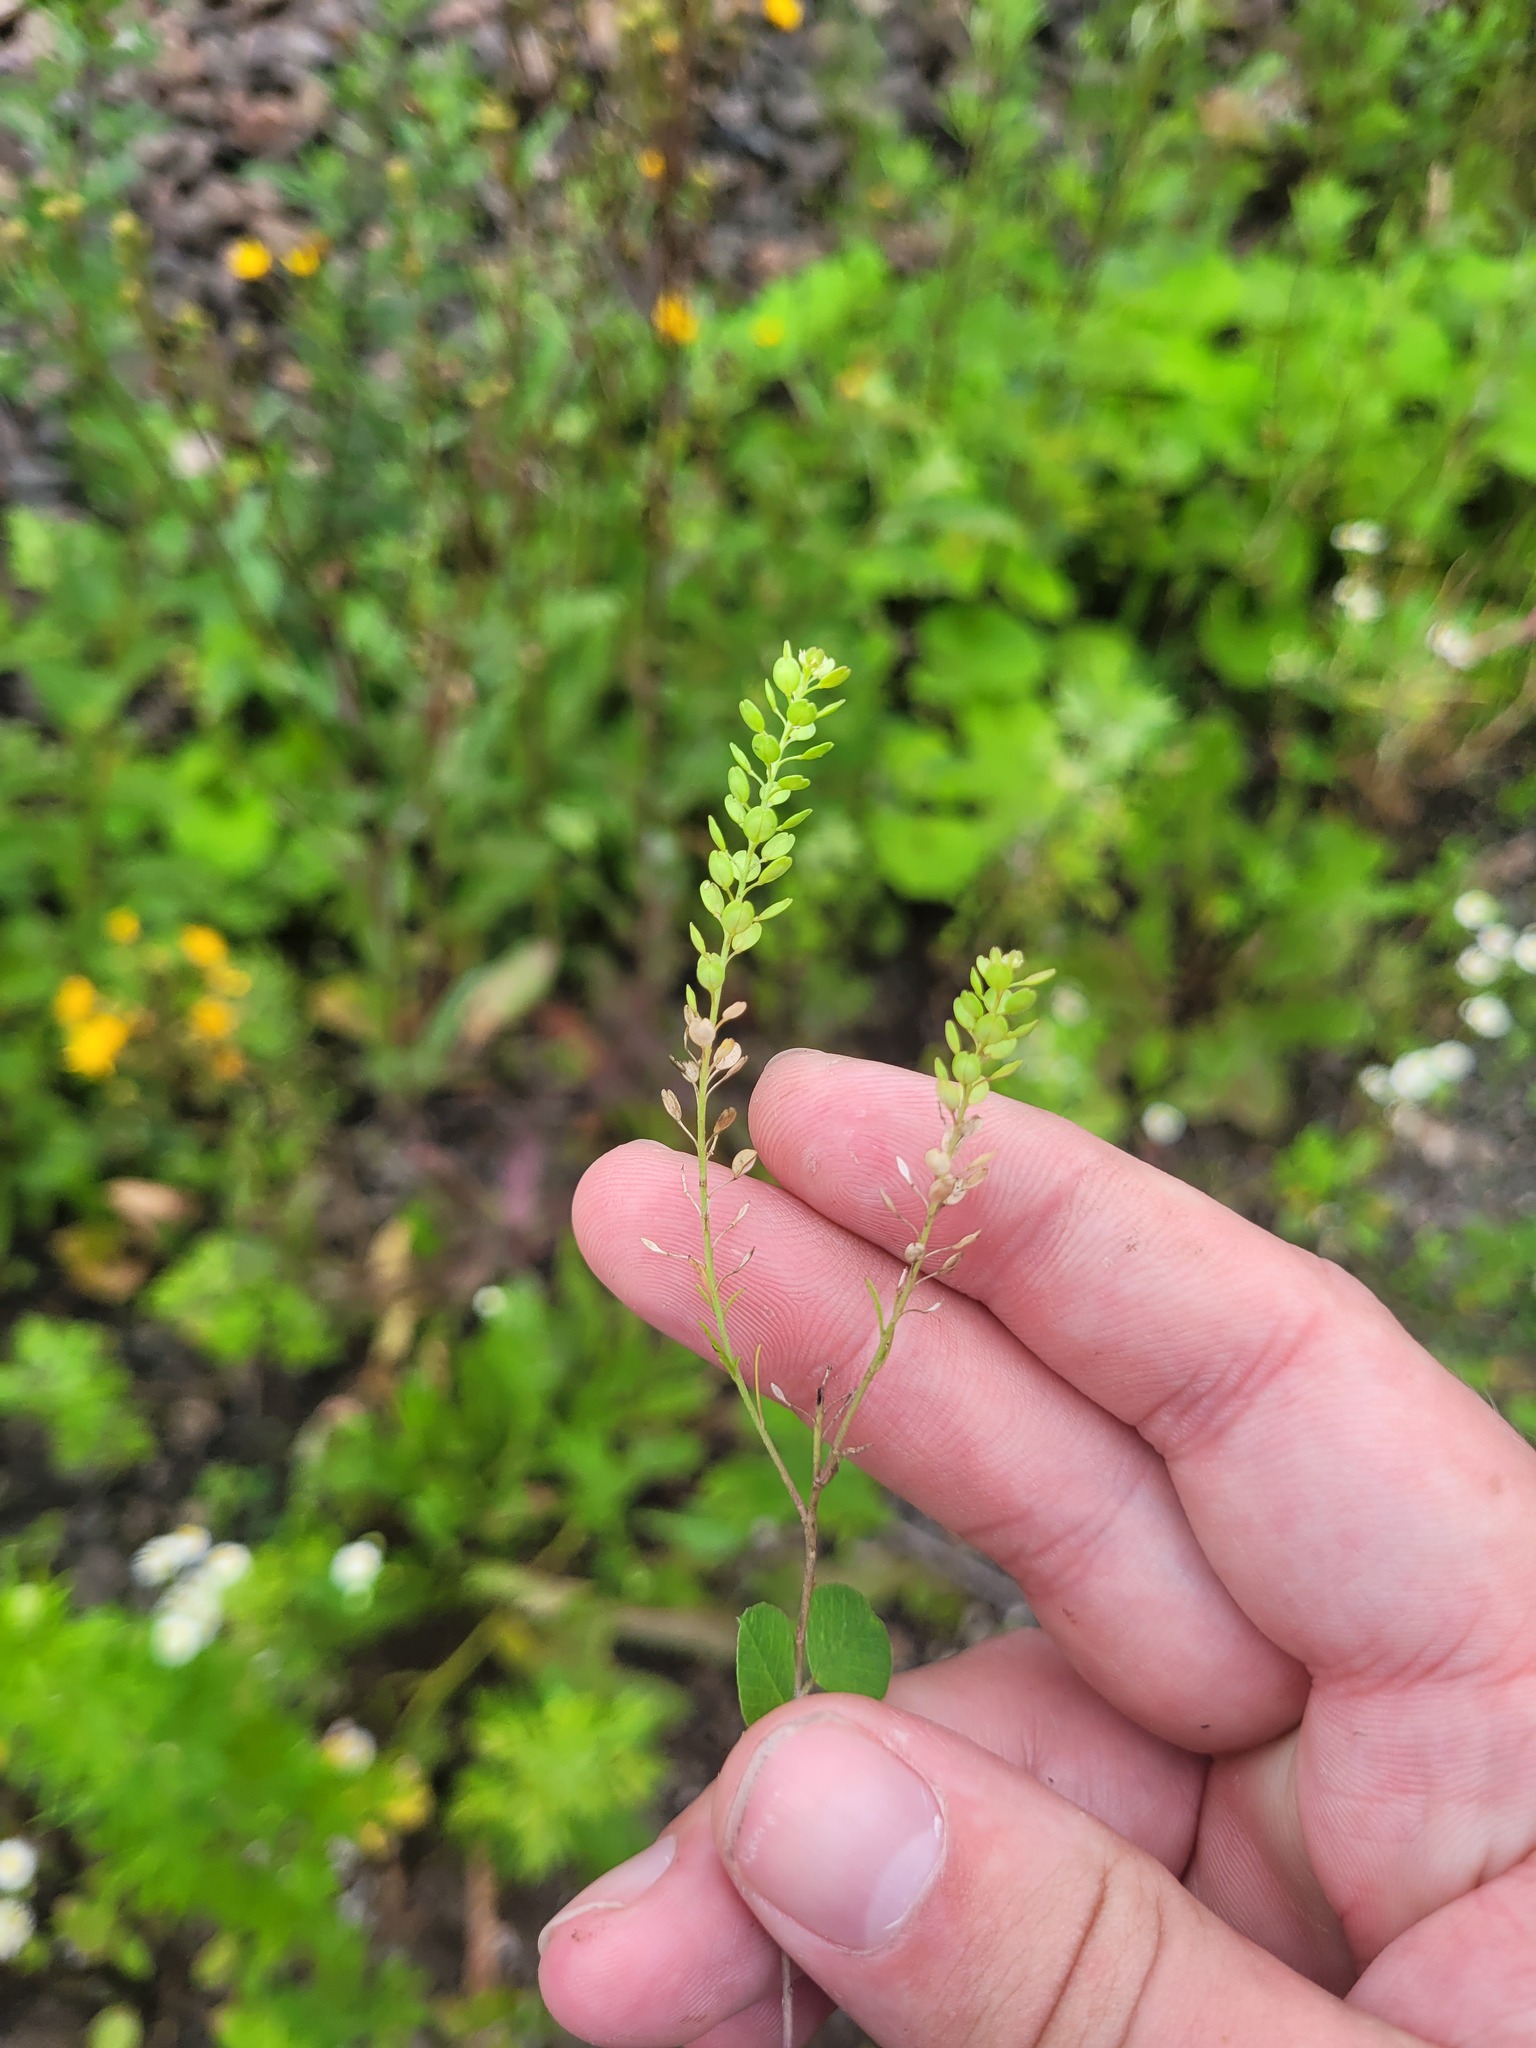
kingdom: Plantae
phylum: Tracheophyta
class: Magnoliopsida
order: Brassicales
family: Brassicaceae
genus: Lepidium
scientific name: Lepidium densiflorum
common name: Miner's pepperwort
